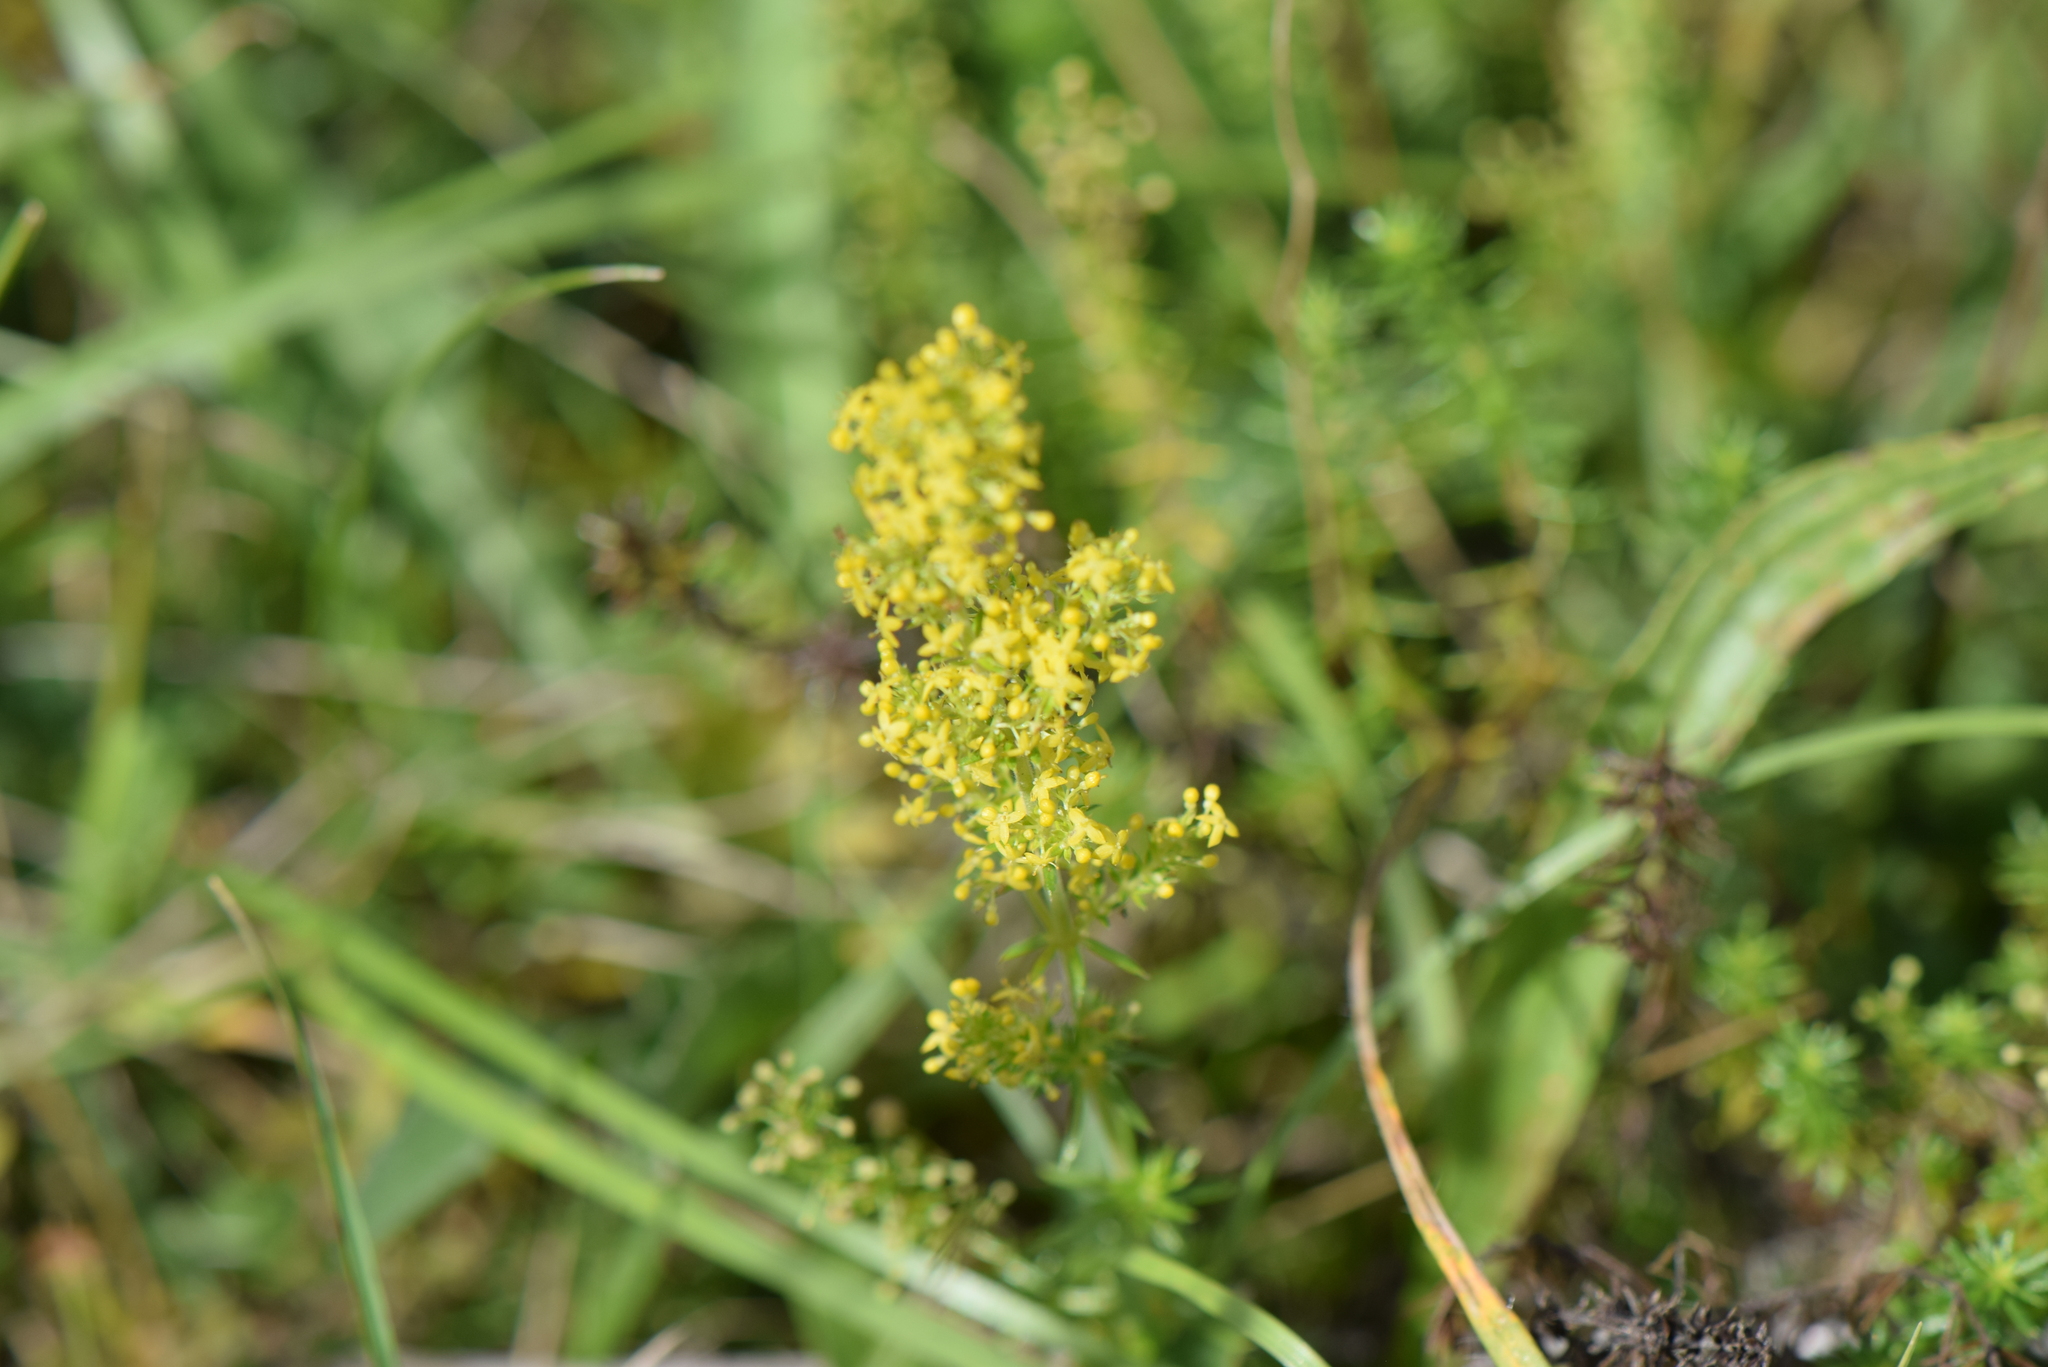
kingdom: Plantae
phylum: Tracheophyta
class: Magnoliopsida
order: Gentianales
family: Rubiaceae
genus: Galium
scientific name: Galium verum
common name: Lady's bedstraw
